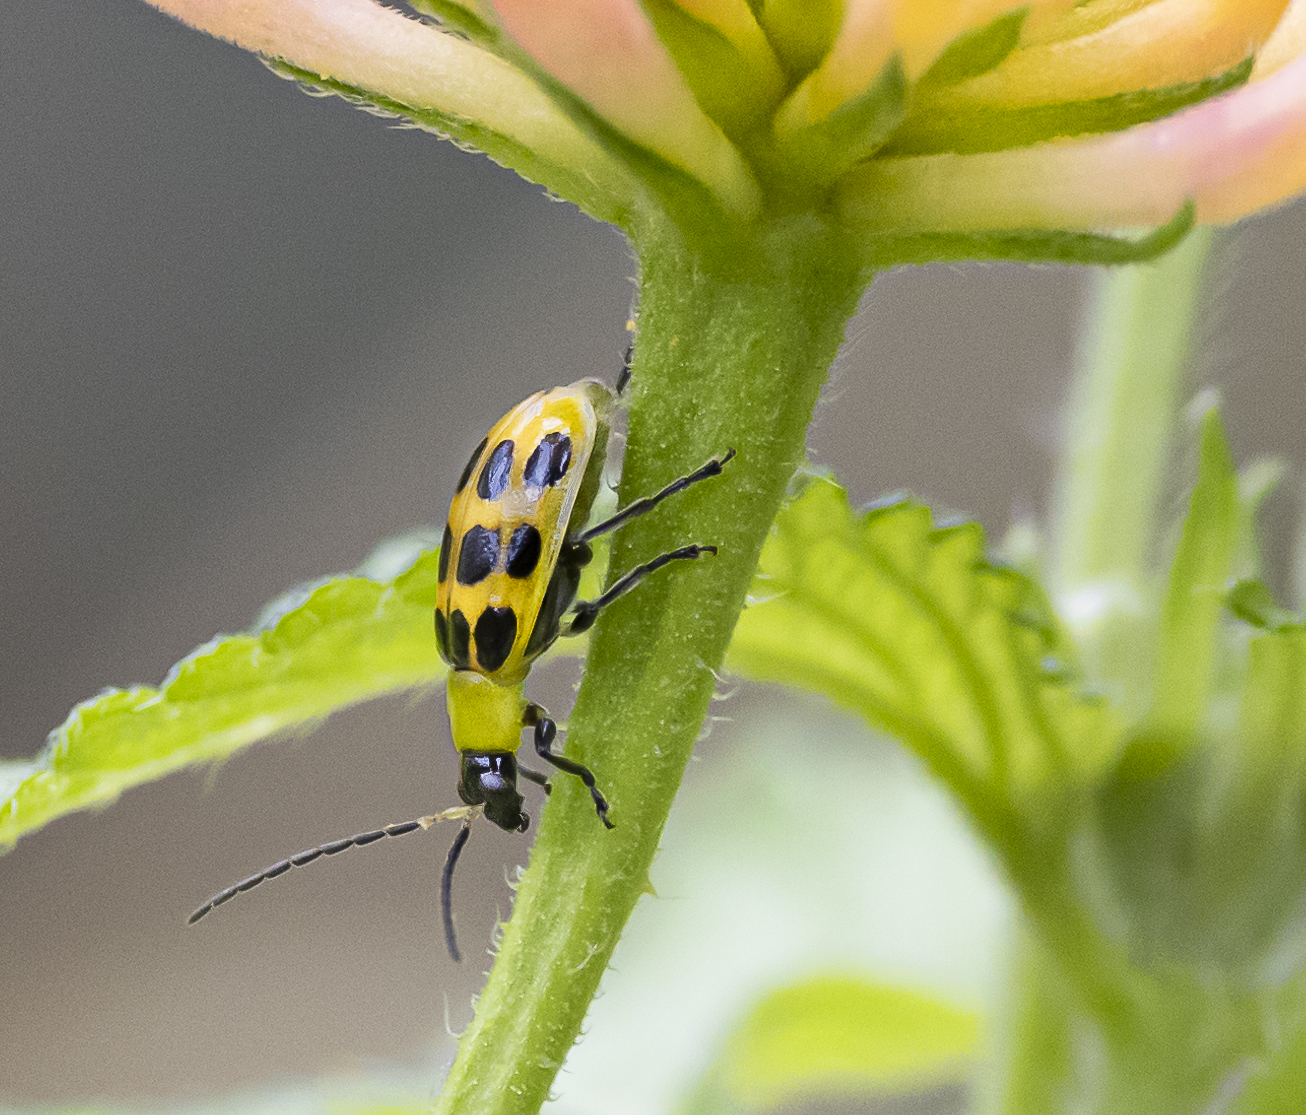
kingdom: Animalia
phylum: Arthropoda
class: Insecta
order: Coleoptera
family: Chrysomelidae
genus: Diabrotica
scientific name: Diabrotica undecimpunctata
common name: Spotted cucumber beetle
